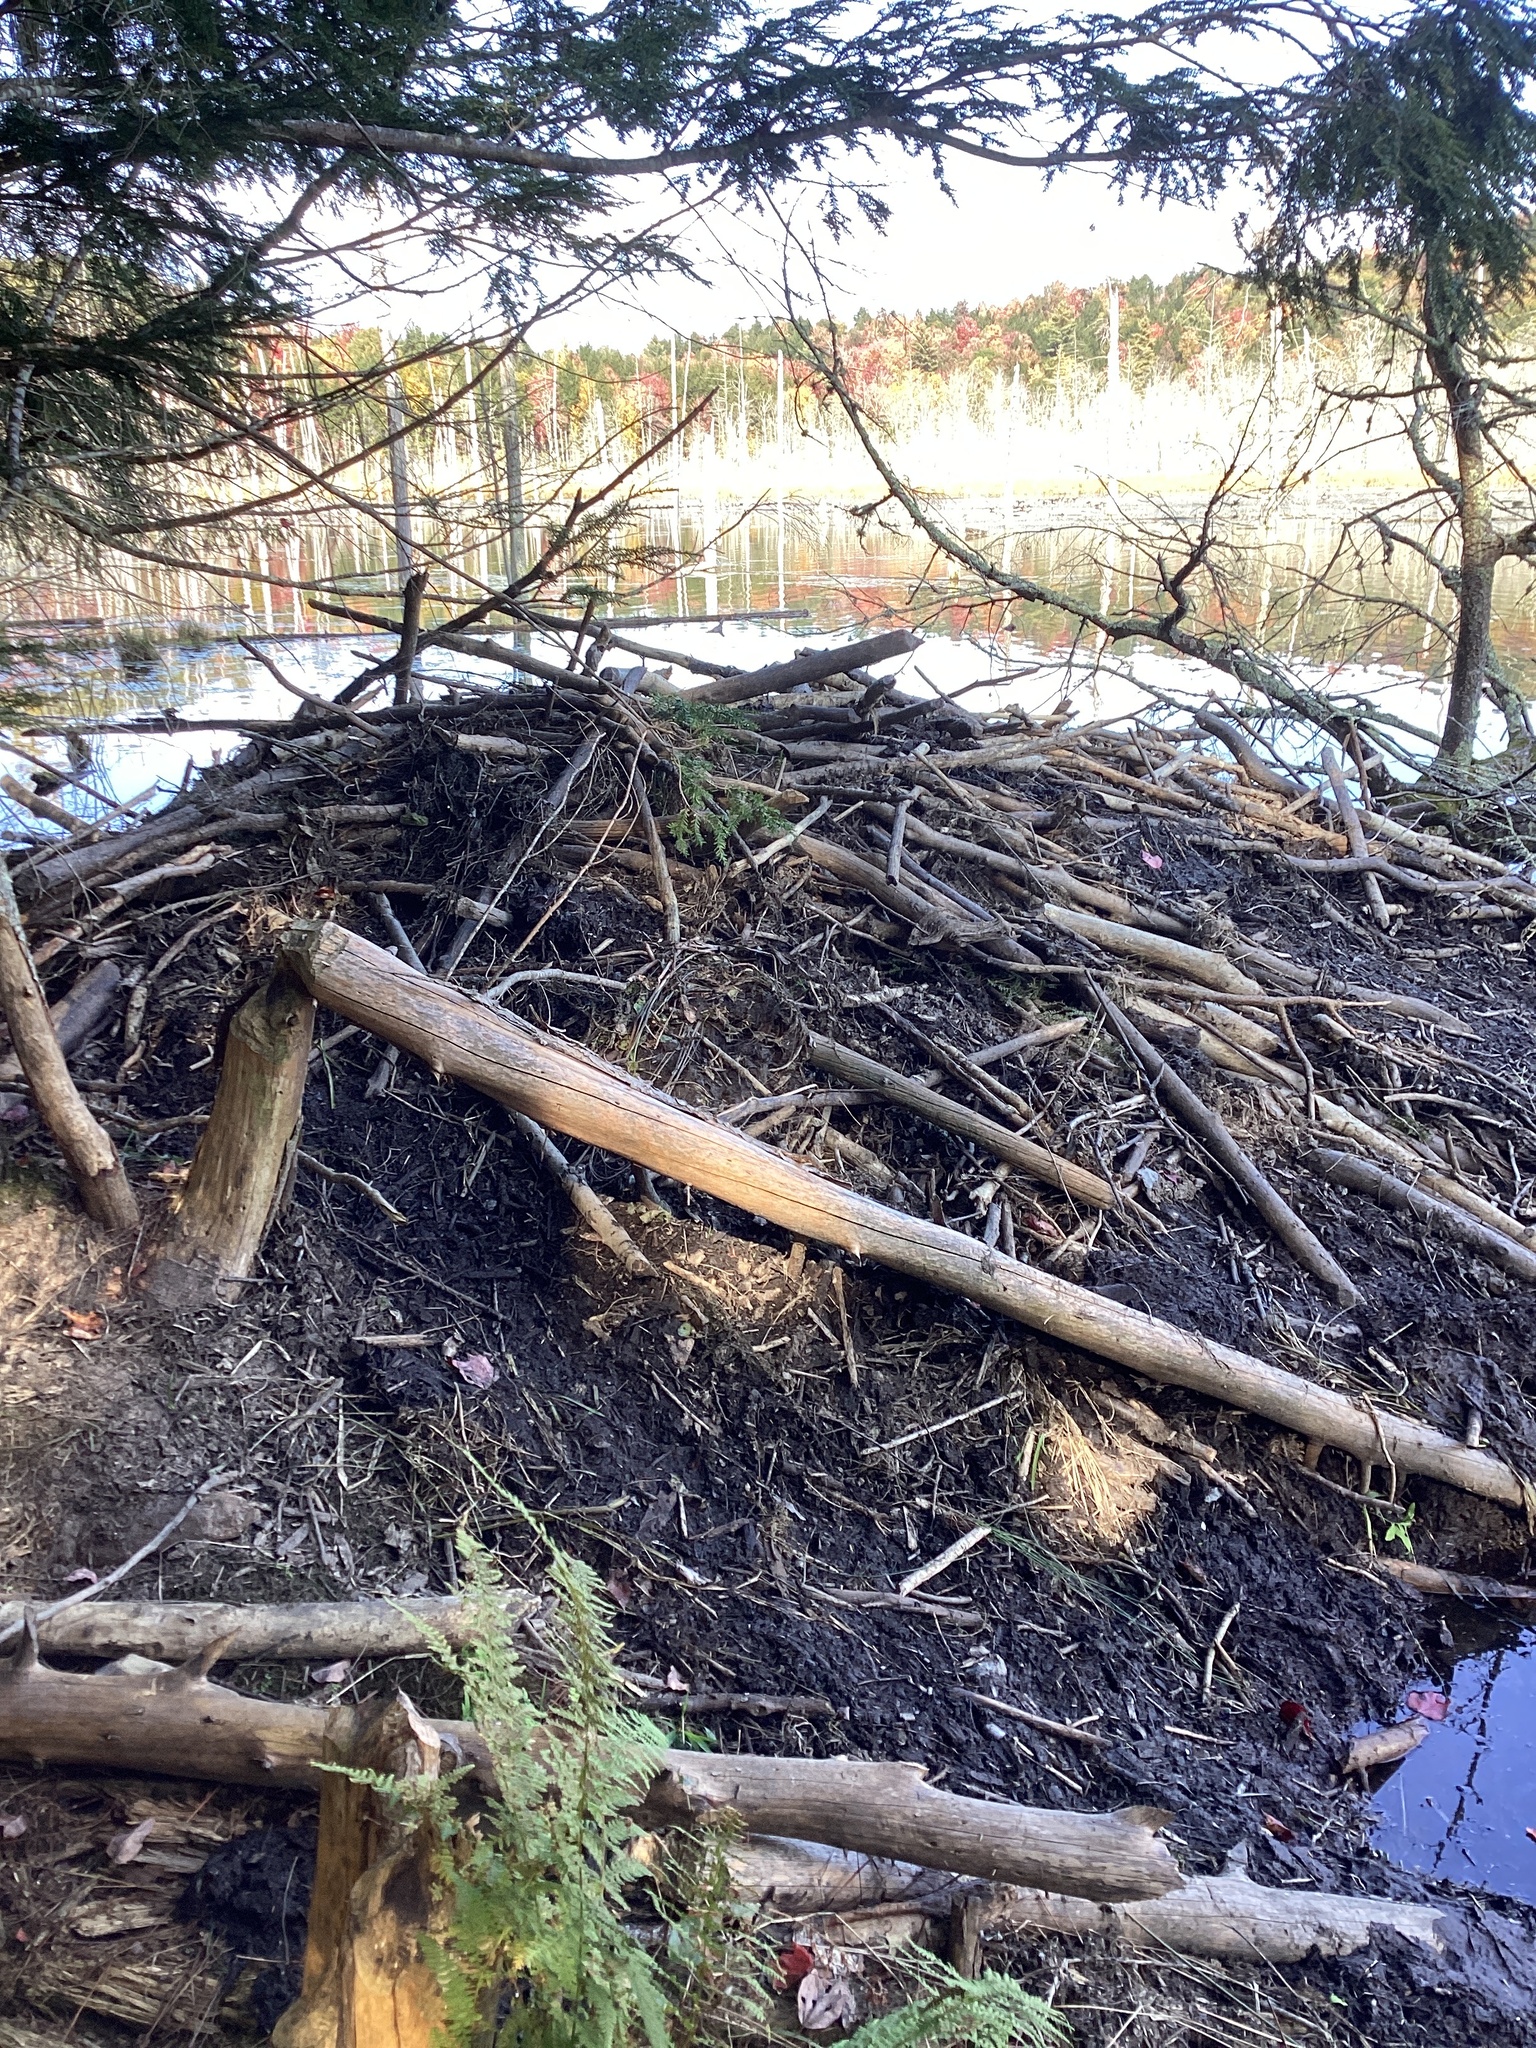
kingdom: Animalia
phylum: Chordata
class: Mammalia
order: Rodentia
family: Castoridae
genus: Castor
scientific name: Castor canadensis
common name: American beaver
